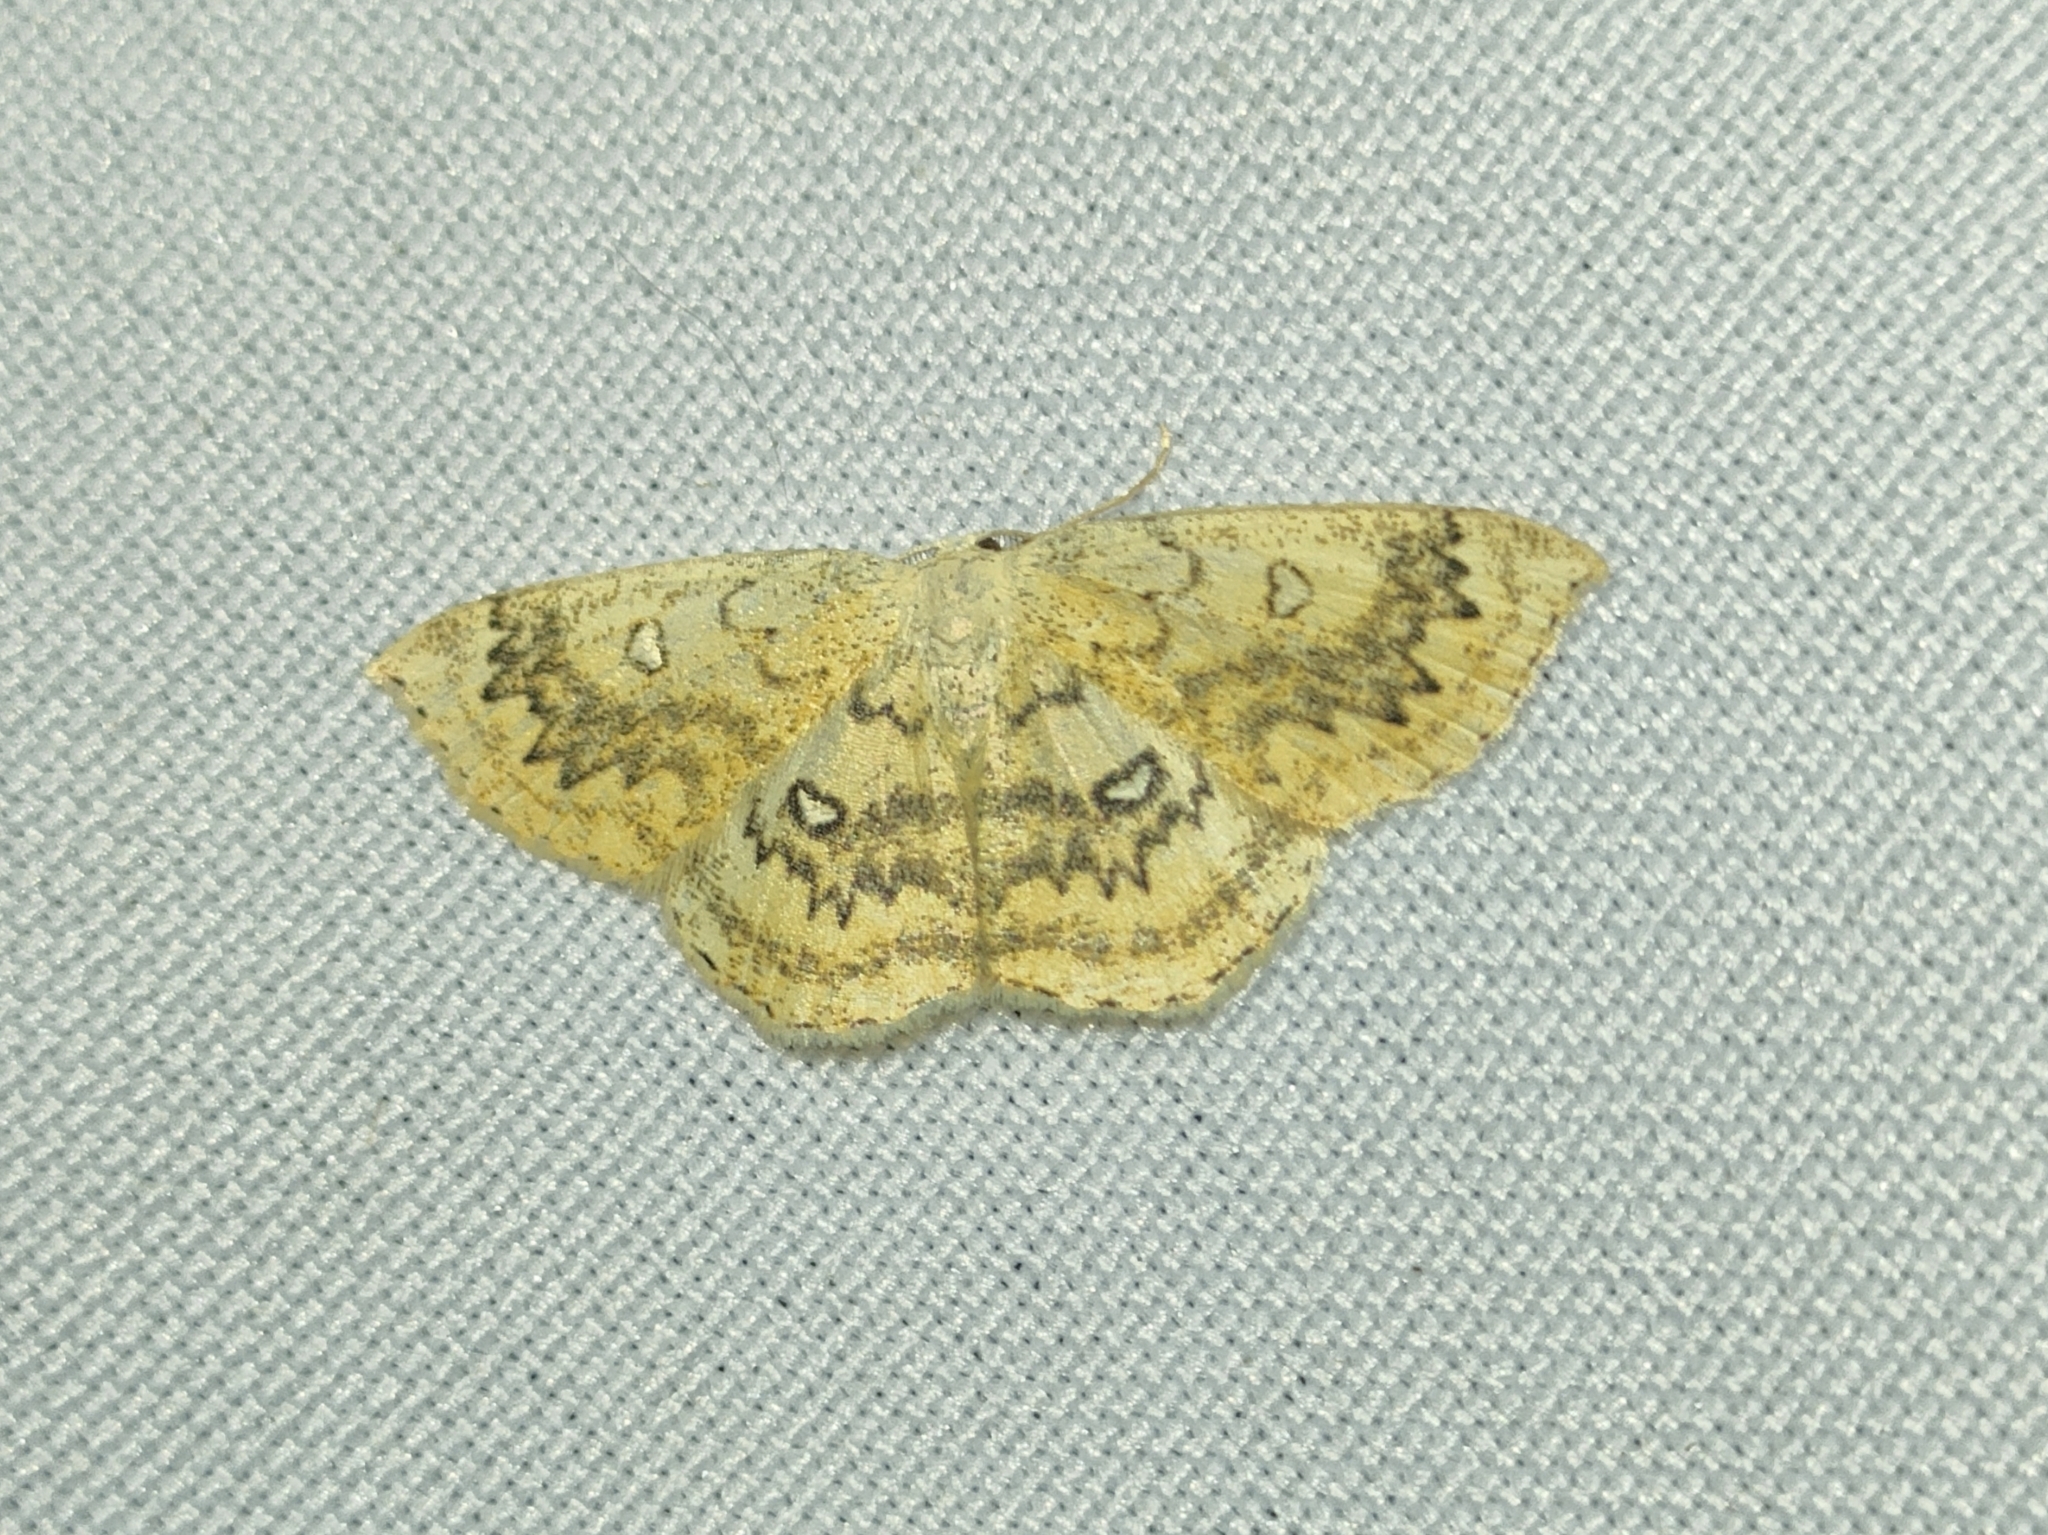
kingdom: Animalia
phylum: Arthropoda
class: Insecta
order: Lepidoptera
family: Geometridae
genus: Cyclophora
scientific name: Cyclophora annularia
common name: Mocha
